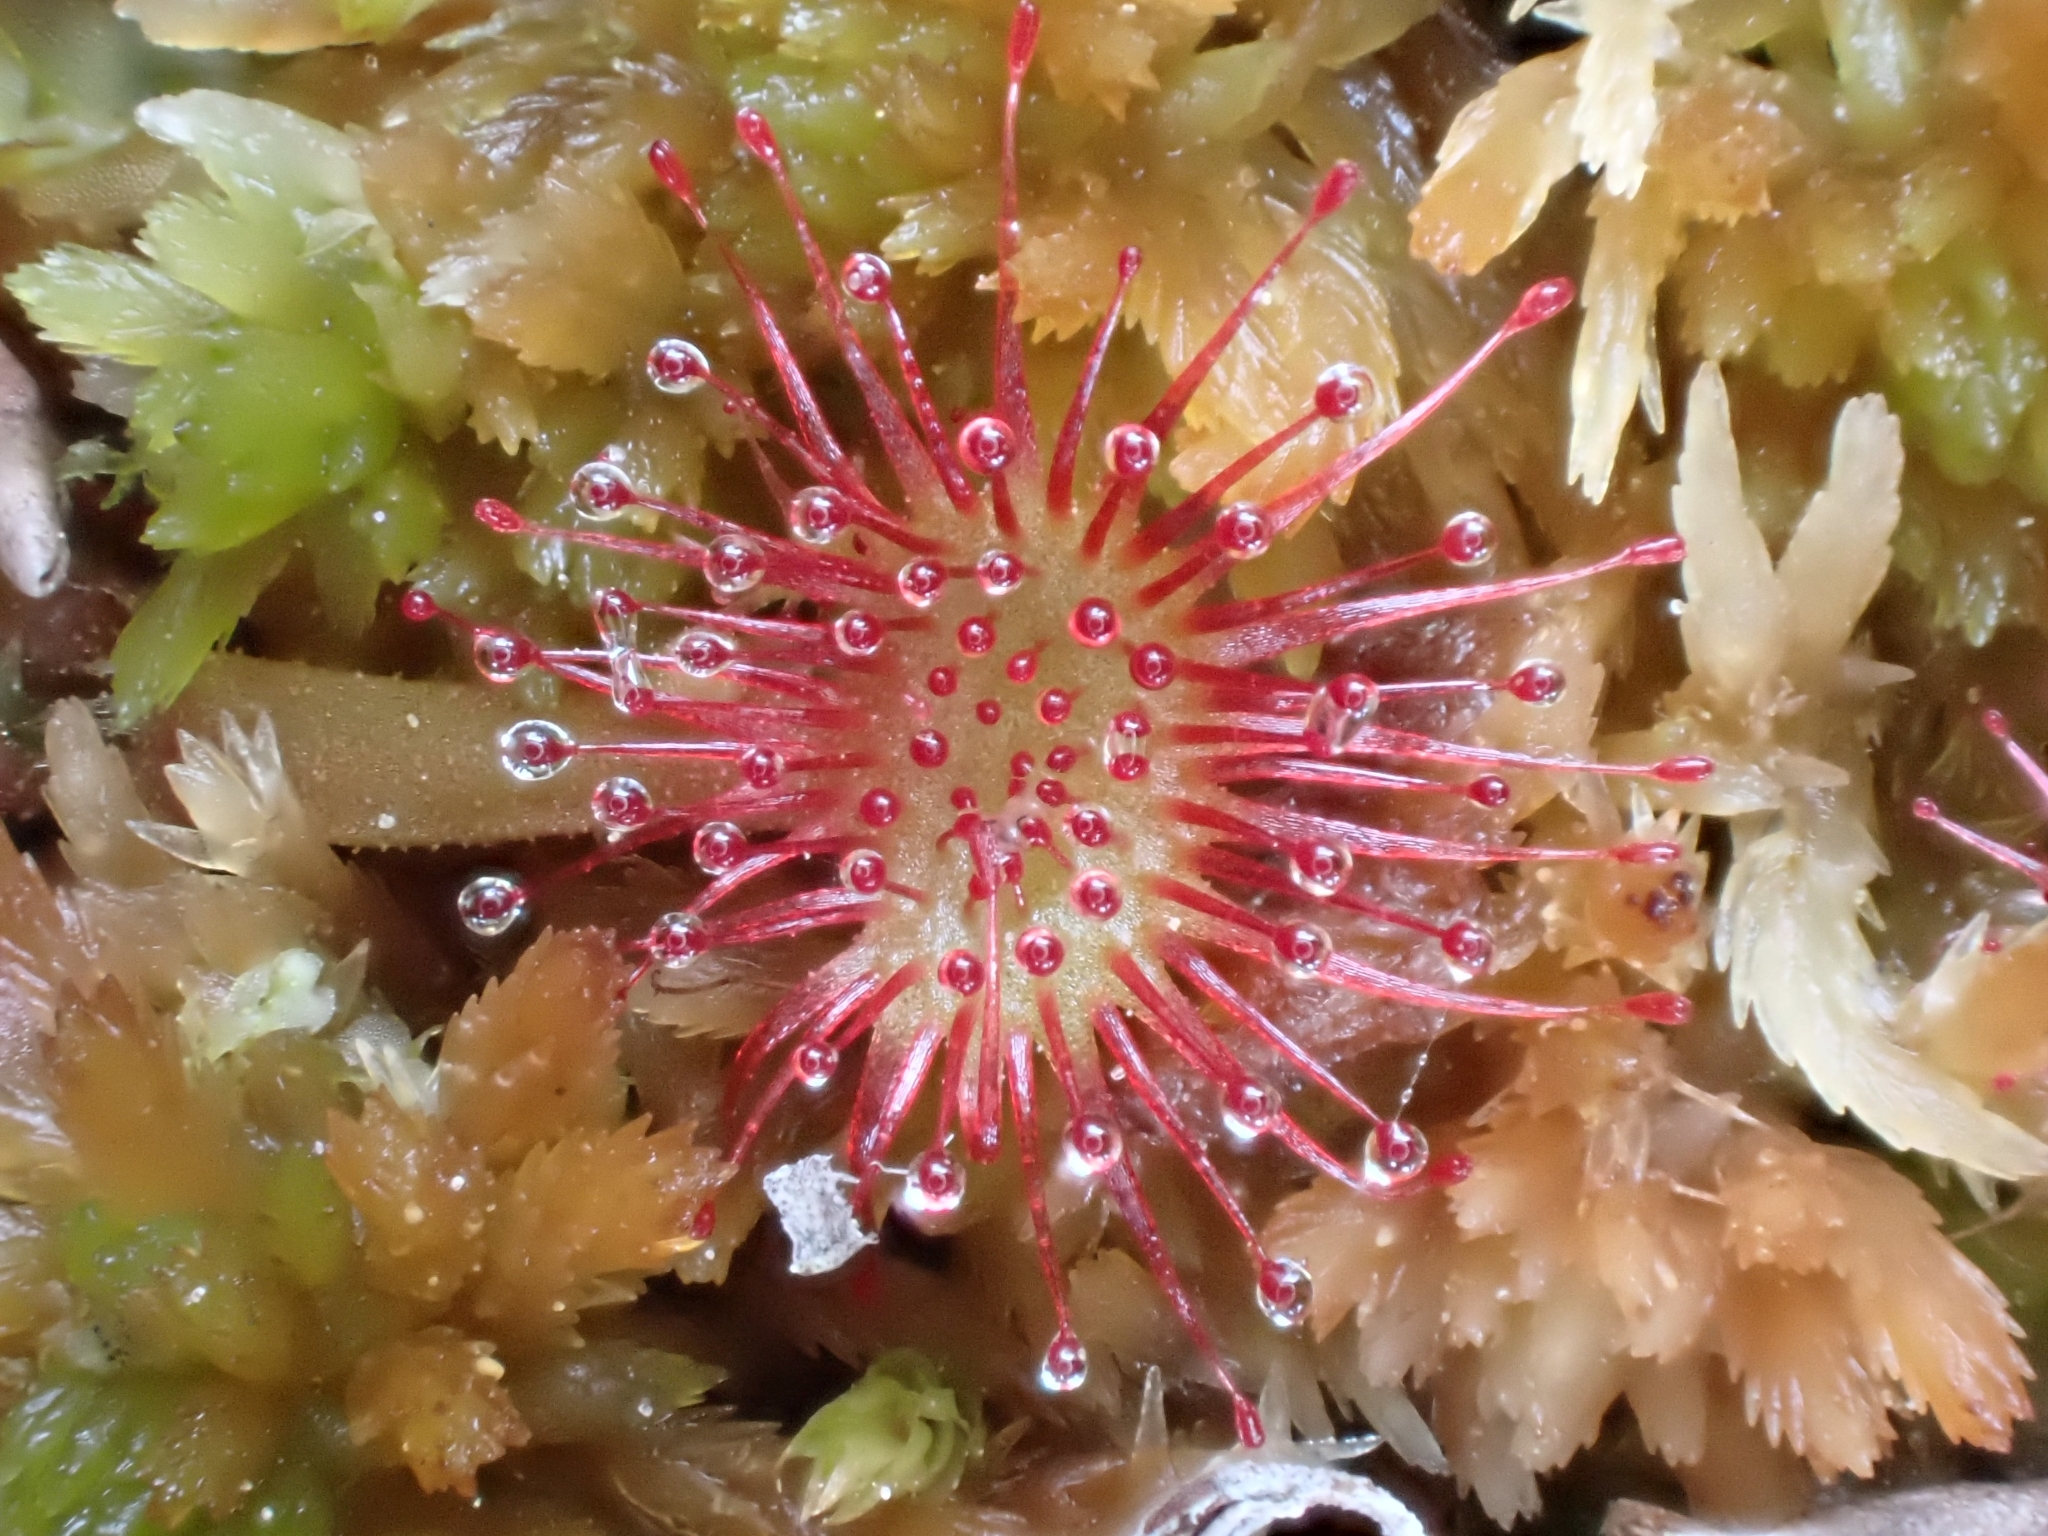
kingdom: Plantae
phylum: Tracheophyta
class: Magnoliopsida
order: Caryophyllales
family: Droseraceae
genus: Drosera
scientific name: Drosera rotundifolia
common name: Round-leaved sundew
